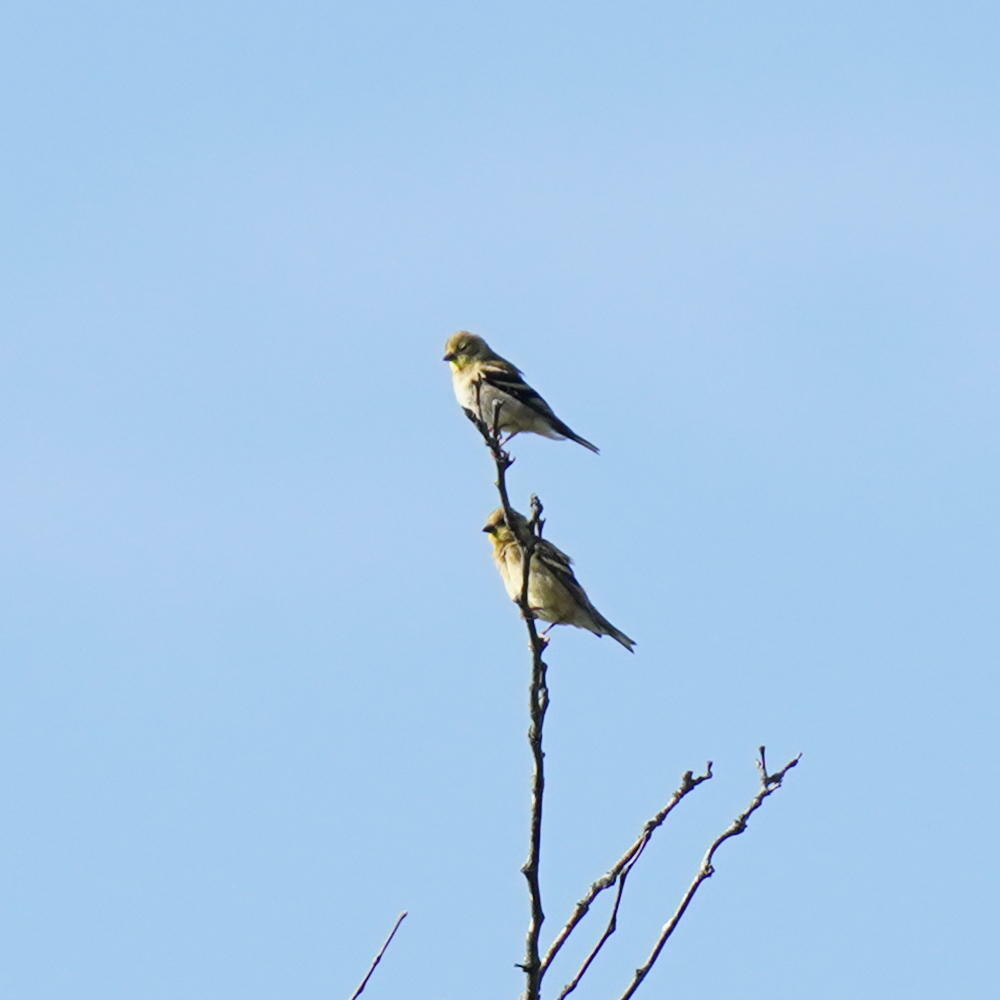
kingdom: Animalia
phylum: Chordata
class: Aves
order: Passeriformes
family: Fringillidae
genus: Spinus
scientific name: Spinus tristis
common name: American goldfinch
